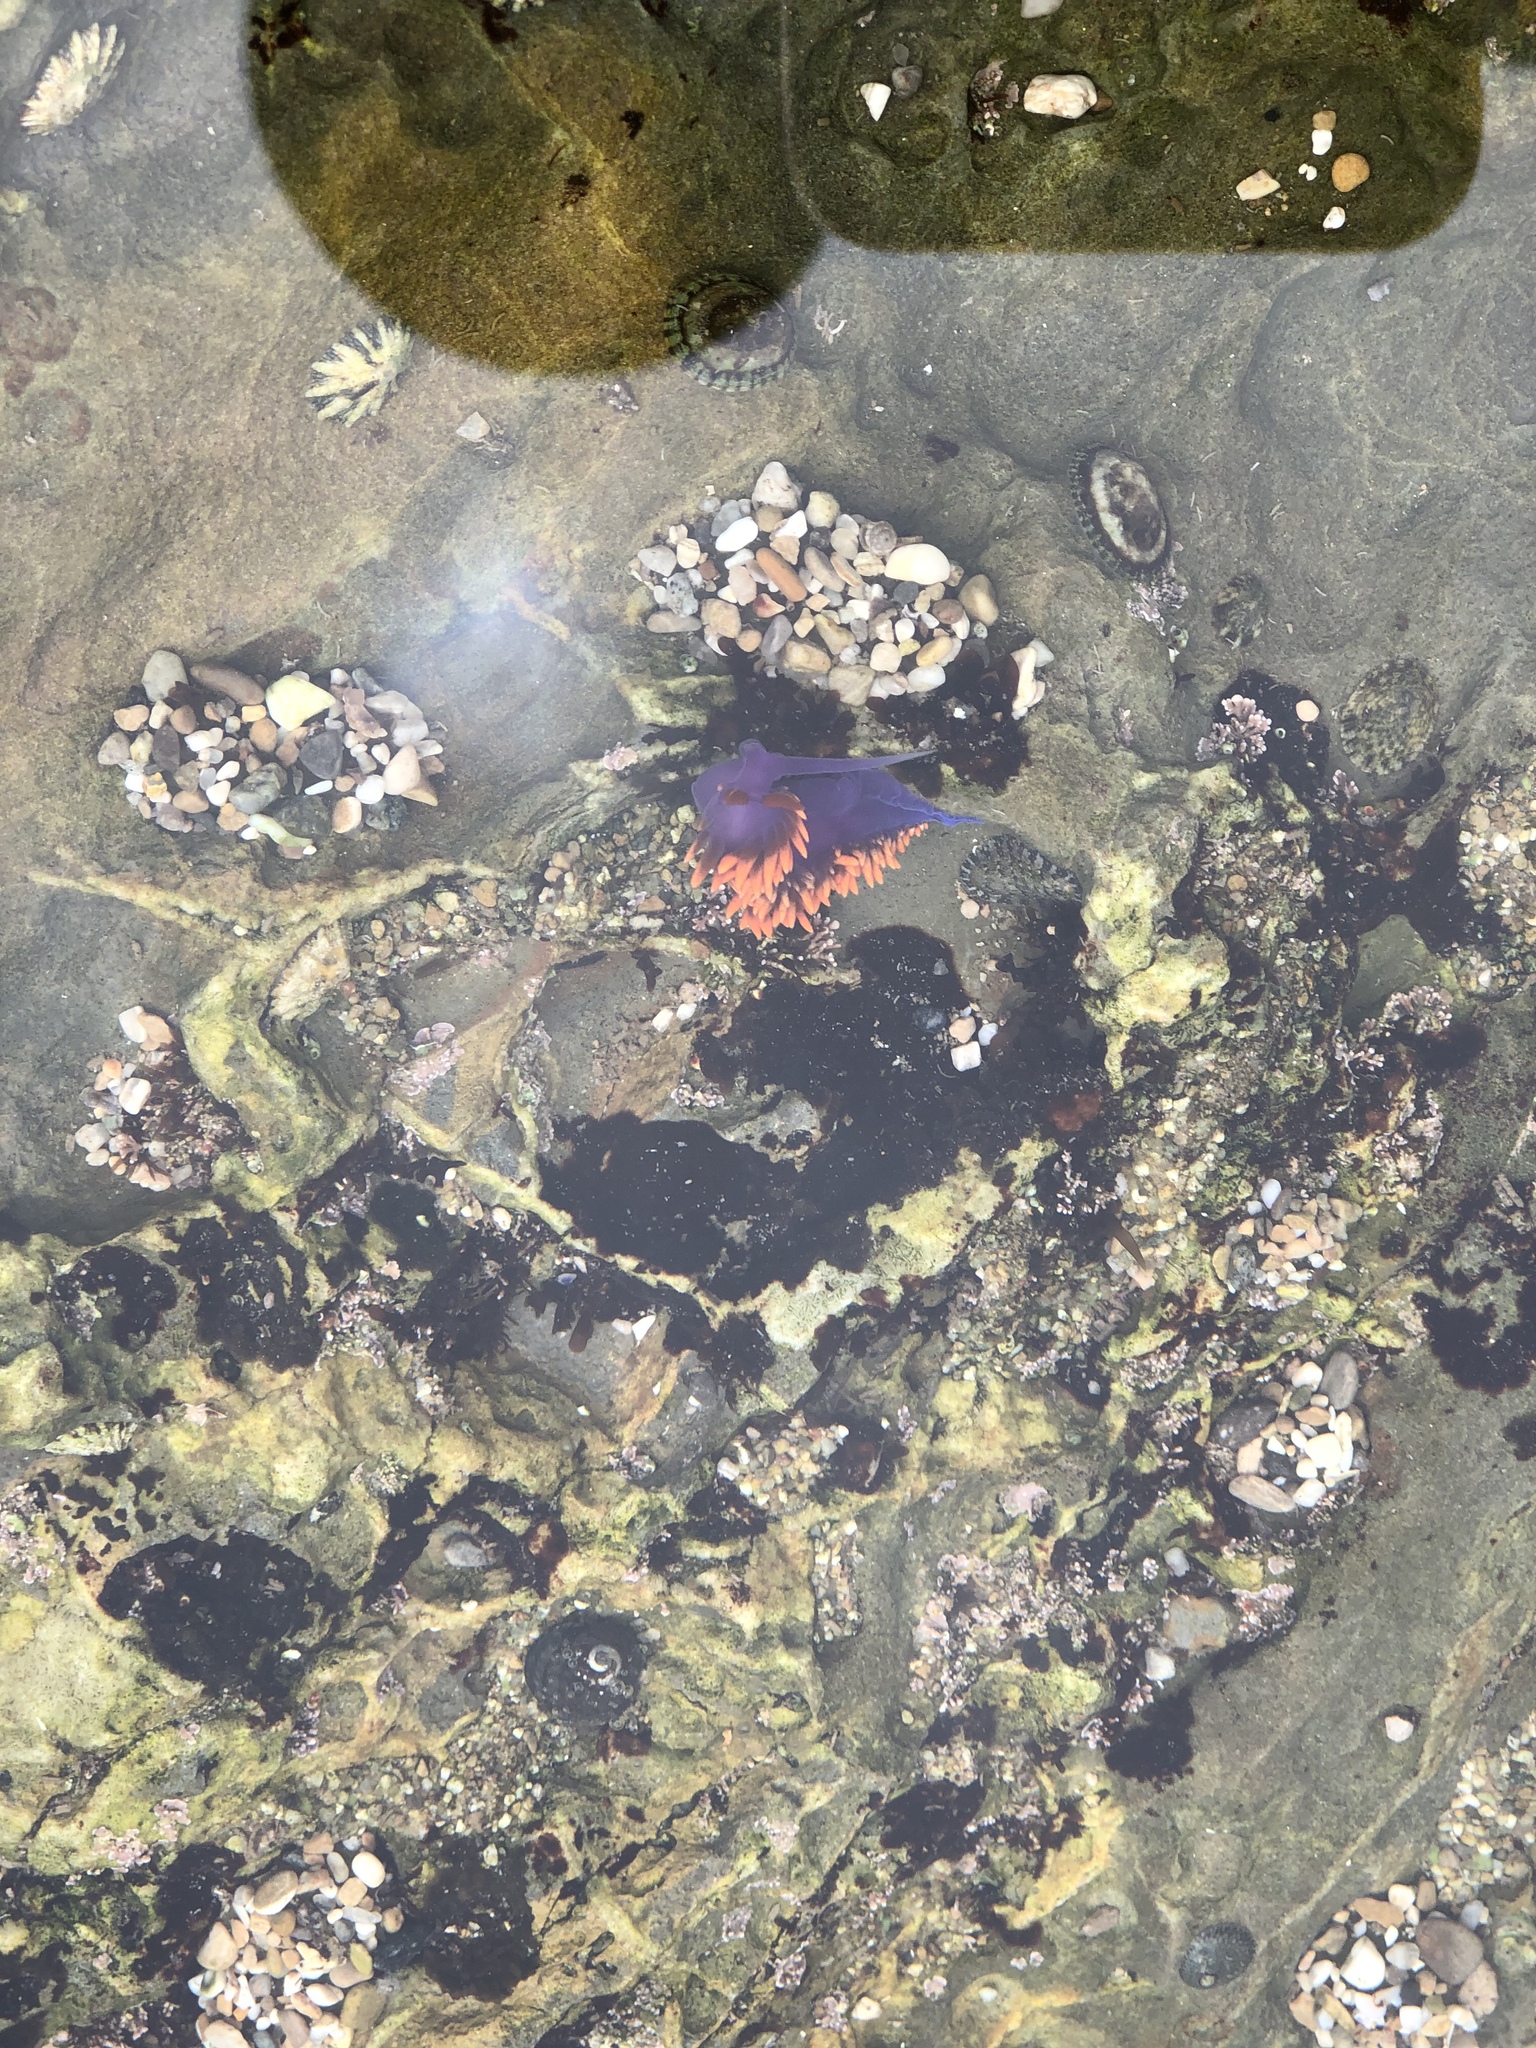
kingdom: Animalia
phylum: Mollusca
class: Gastropoda
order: Nudibranchia
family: Flabellinopsidae
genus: Flabellinopsis
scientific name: Flabellinopsis iodinea
